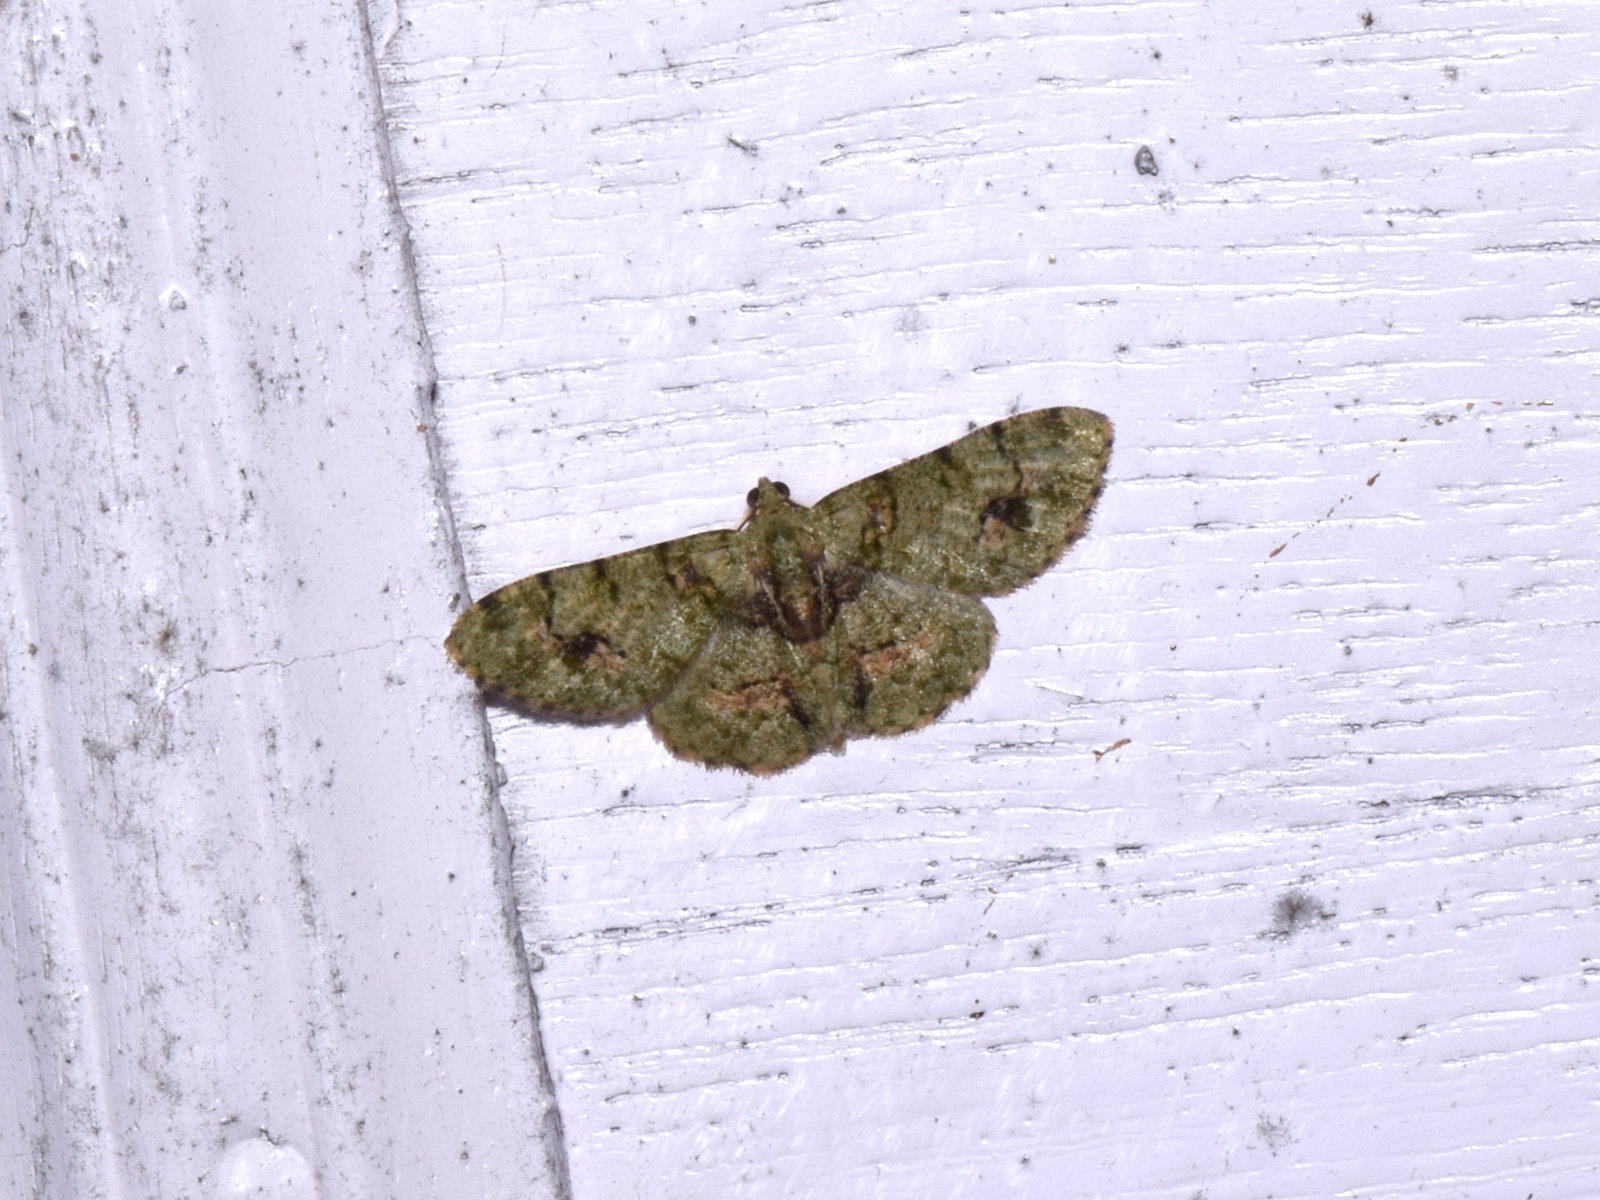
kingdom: Animalia
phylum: Arthropoda
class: Insecta
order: Lepidoptera
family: Geometridae
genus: Aethalura
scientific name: Aethalura leucozona
